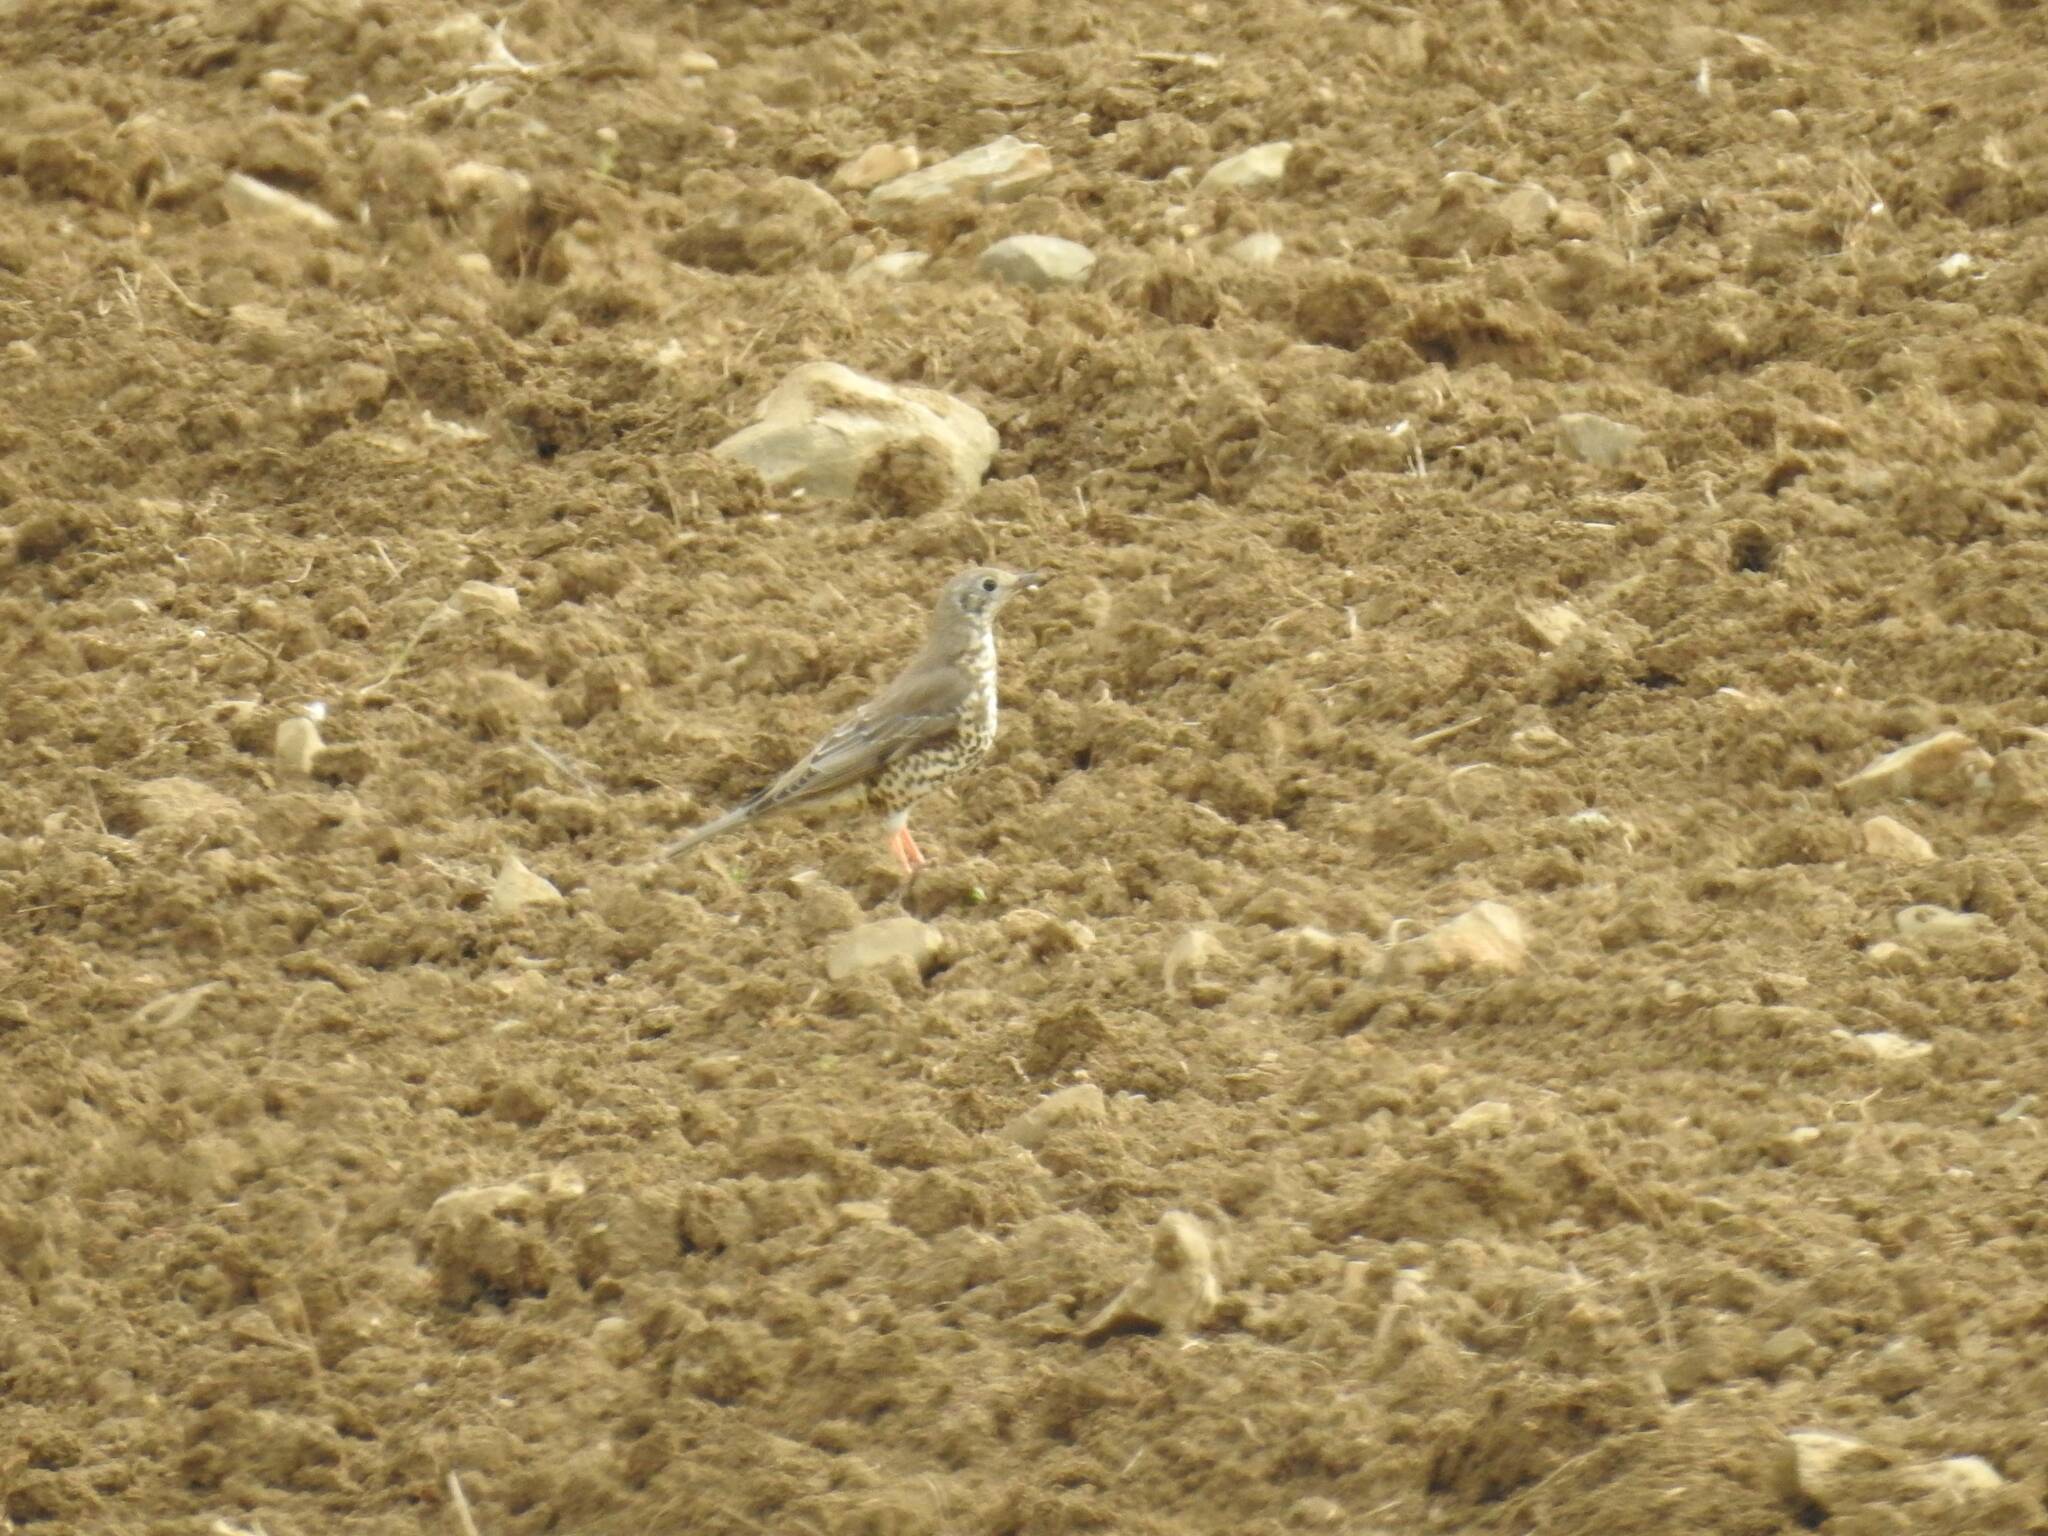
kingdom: Animalia
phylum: Chordata
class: Aves
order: Passeriformes
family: Turdidae
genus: Turdus
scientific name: Turdus viscivorus
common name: Mistle thrush
